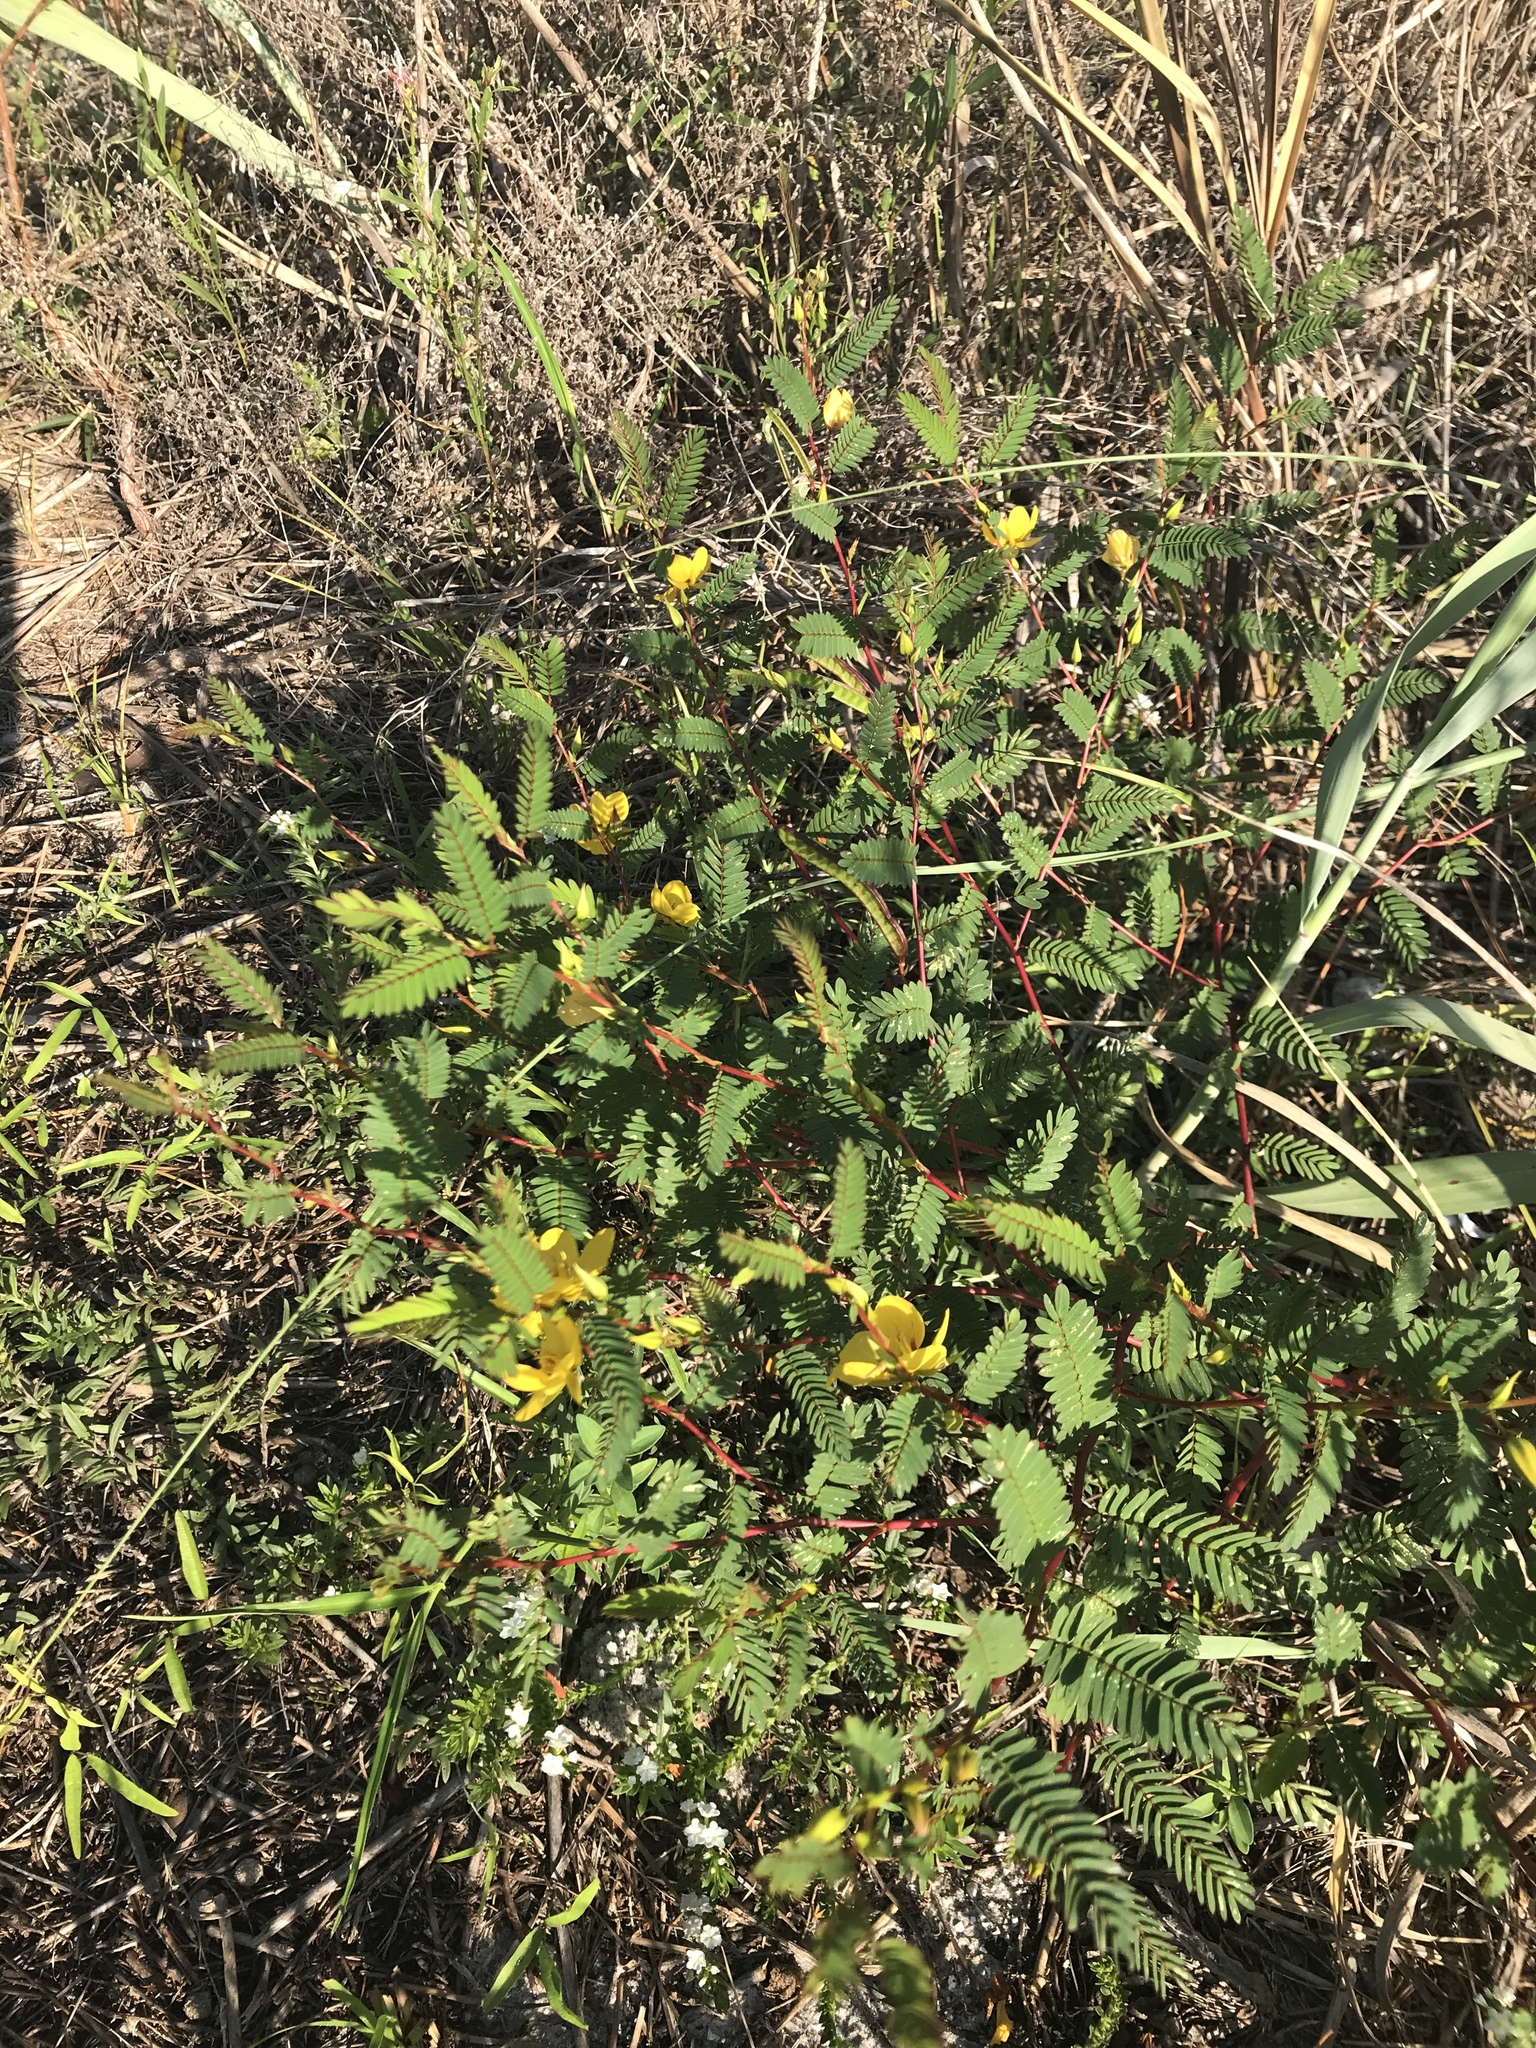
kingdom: Plantae
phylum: Tracheophyta
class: Magnoliopsida
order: Fabales
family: Fabaceae
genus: Chamaecrista
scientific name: Chamaecrista fasciculata
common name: Golden cassia
